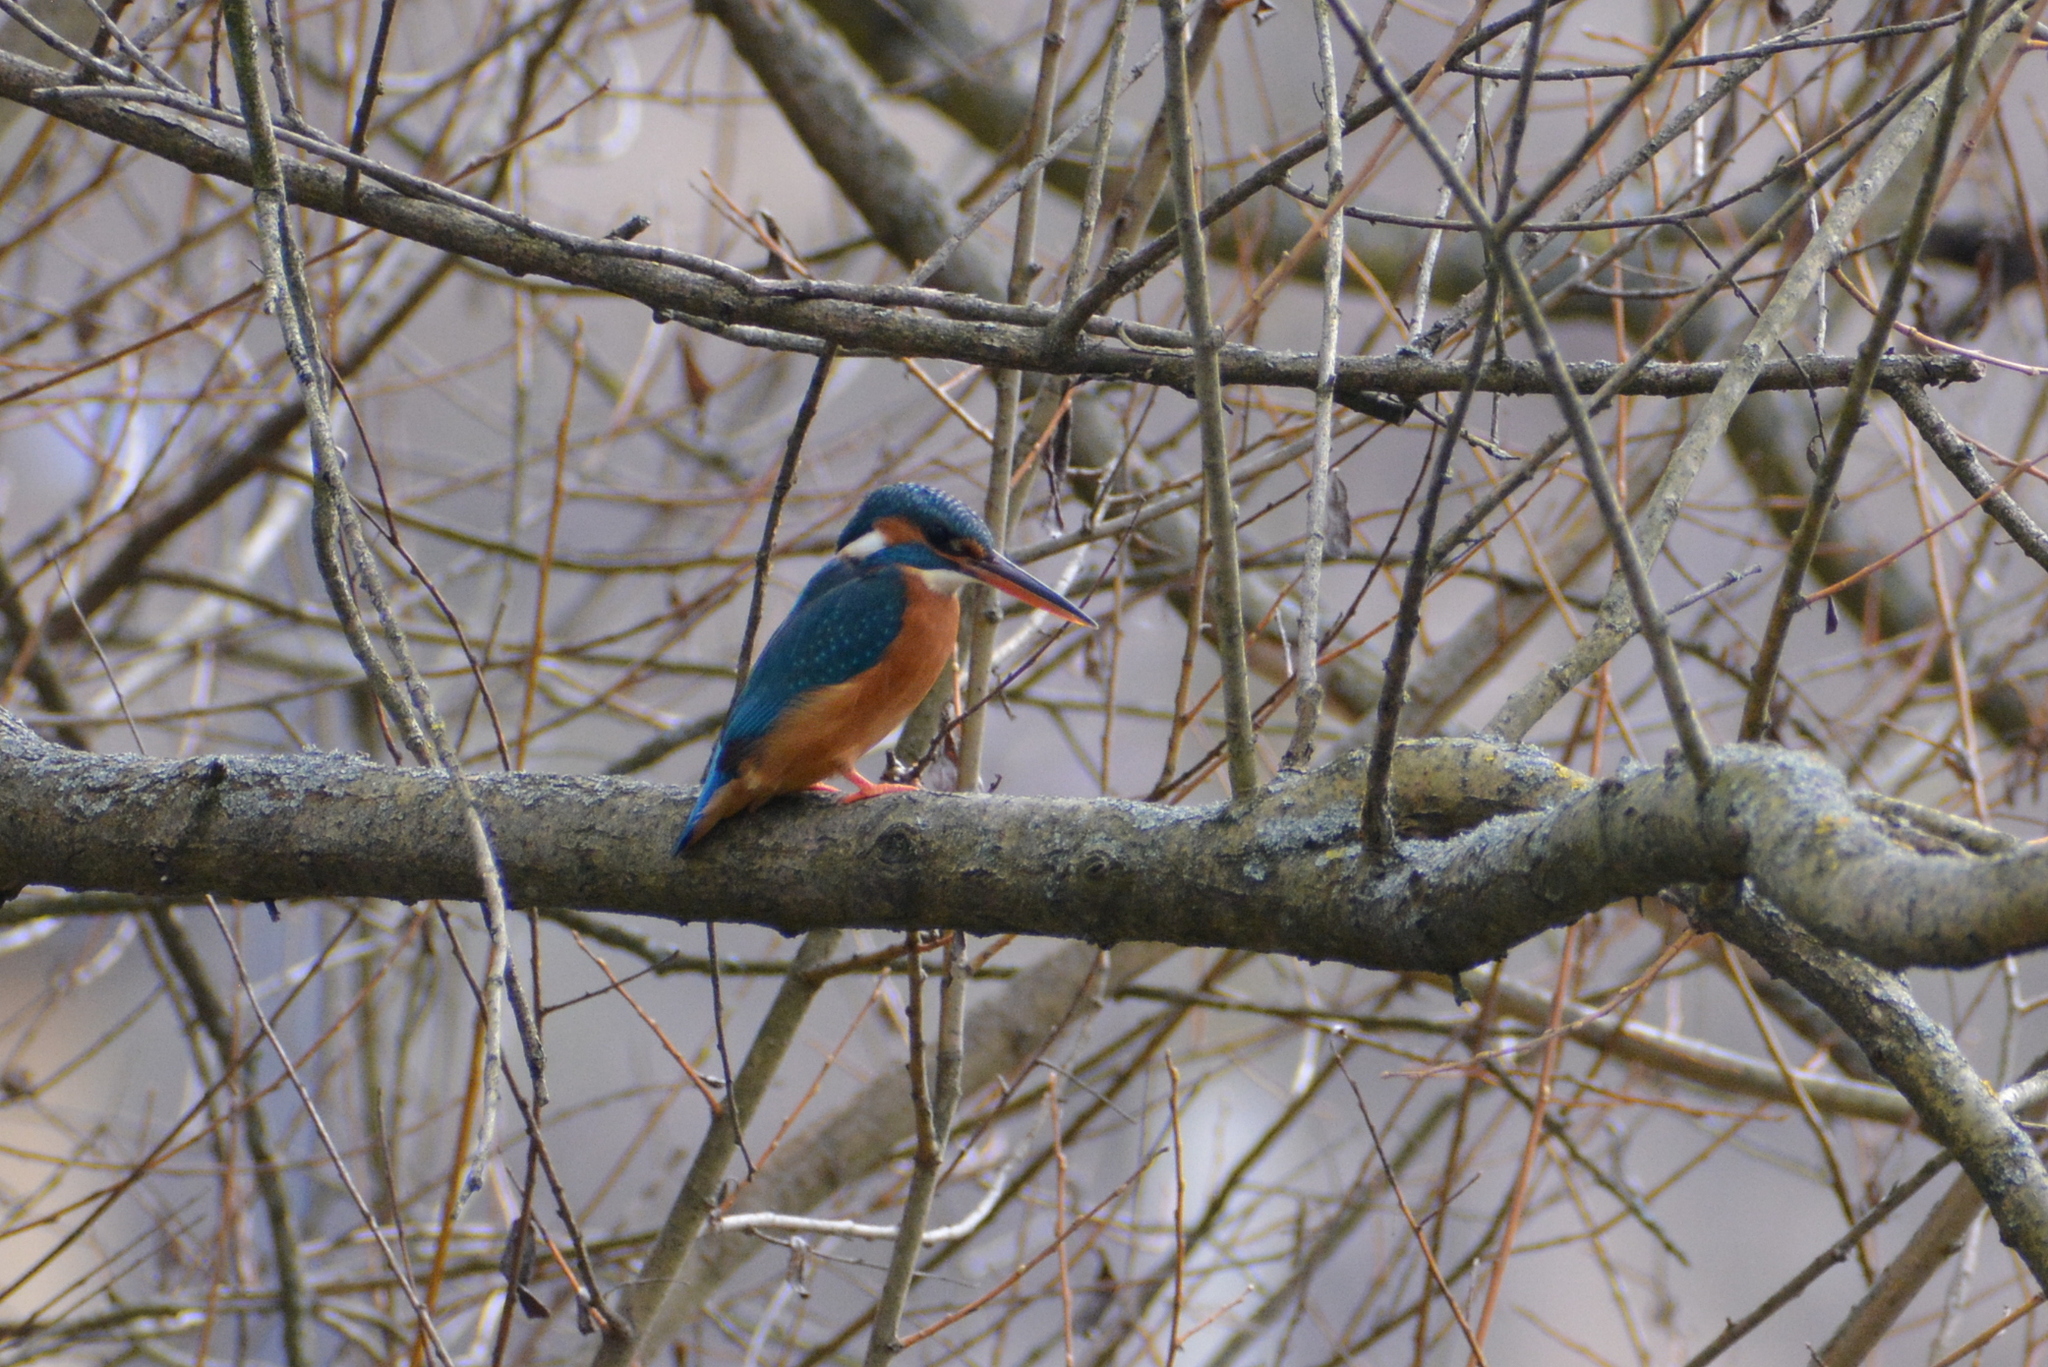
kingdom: Animalia
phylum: Chordata
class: Aves
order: Coraciiformes
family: Alcedinidae
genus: Alcedo
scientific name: Alcedo atthis
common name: Common kingfisher
